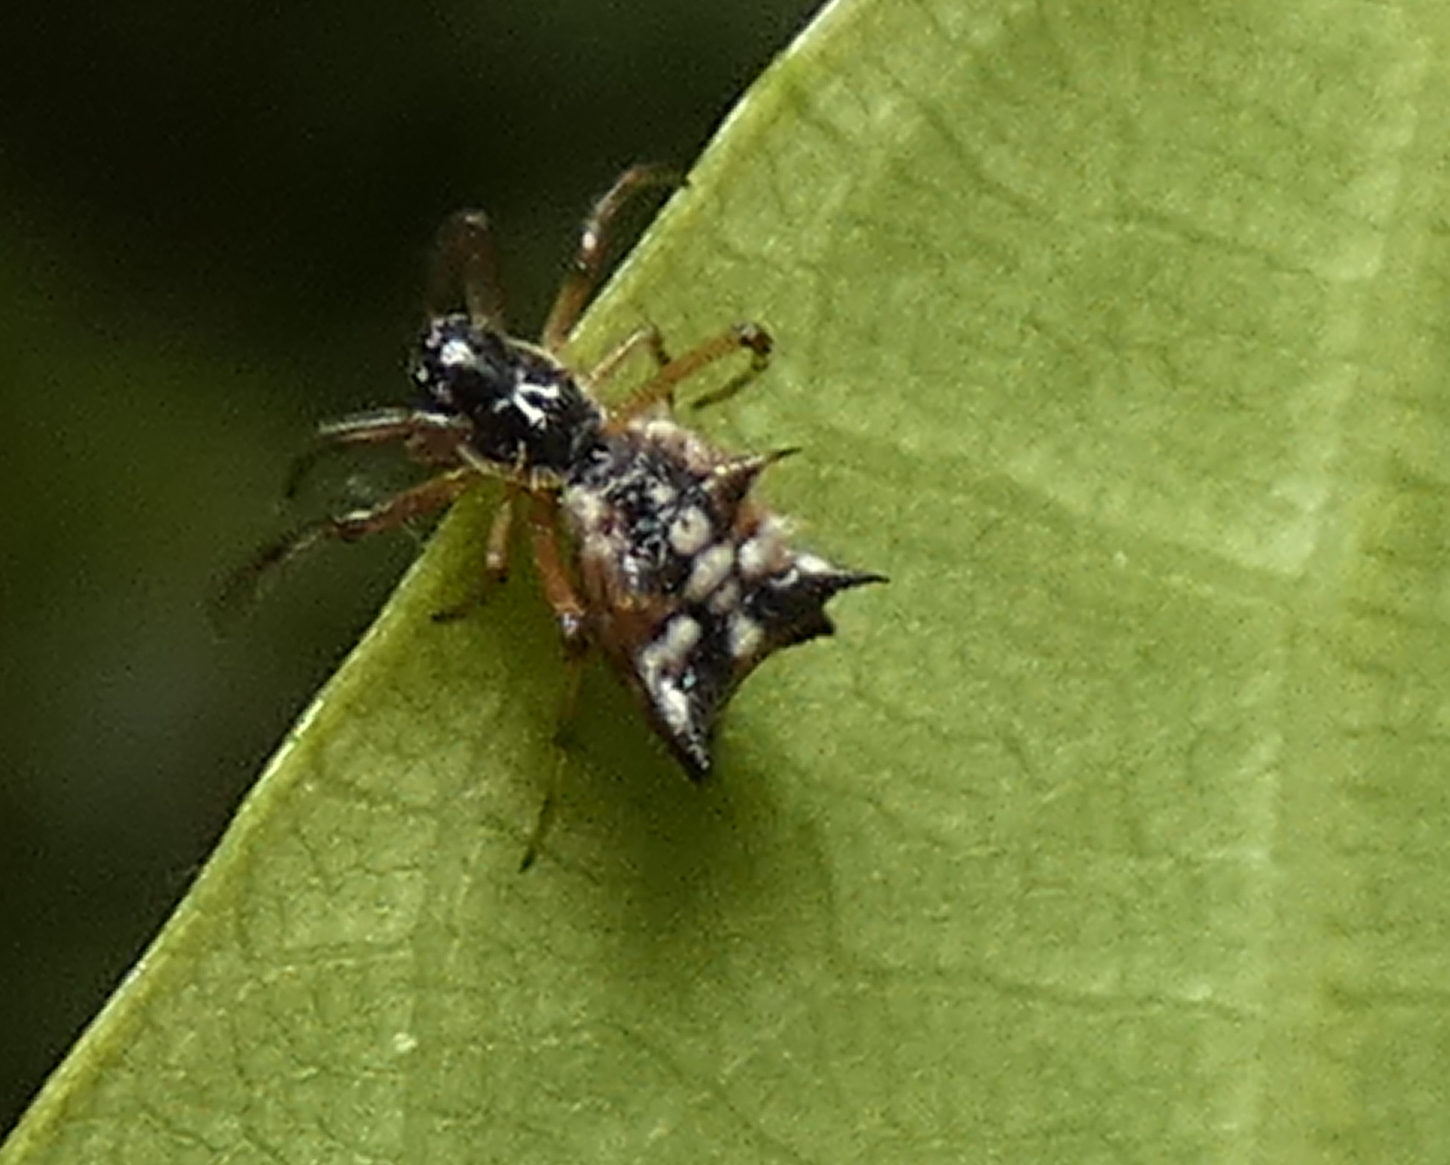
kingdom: Animalia
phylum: Arthropoda
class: Arachnida
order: Araneae
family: Araneidae
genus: Micrathena
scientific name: Micrathena picta
